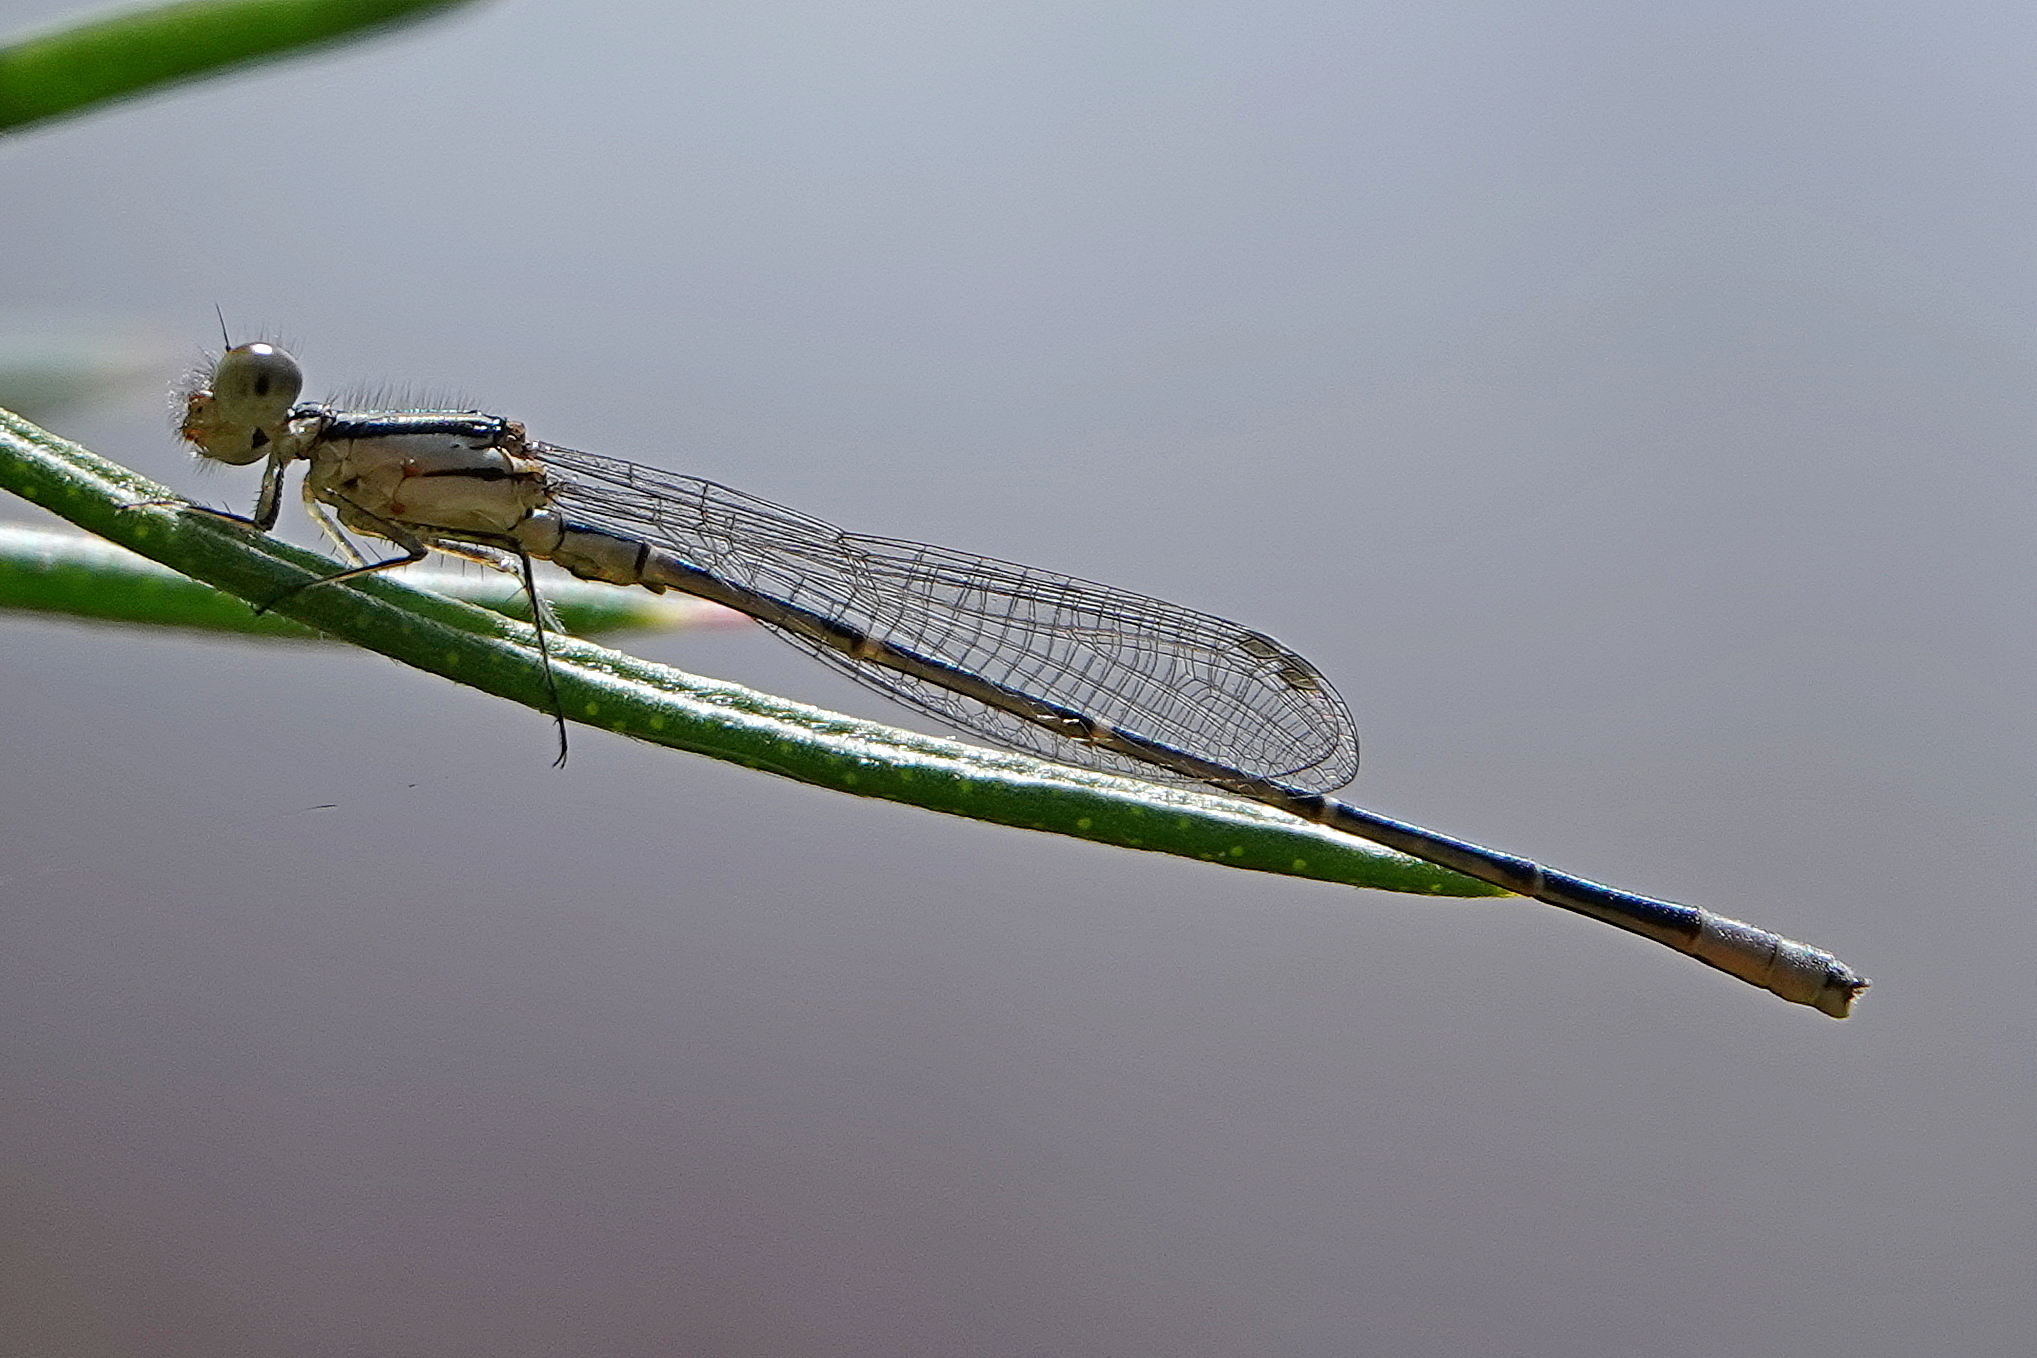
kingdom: Animalia
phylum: Arthropoda
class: Insecta
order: Odonata
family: Coenagrionidae
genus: Austroagrion
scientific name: Austroagrion watsoni
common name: Eastern billabongfly
